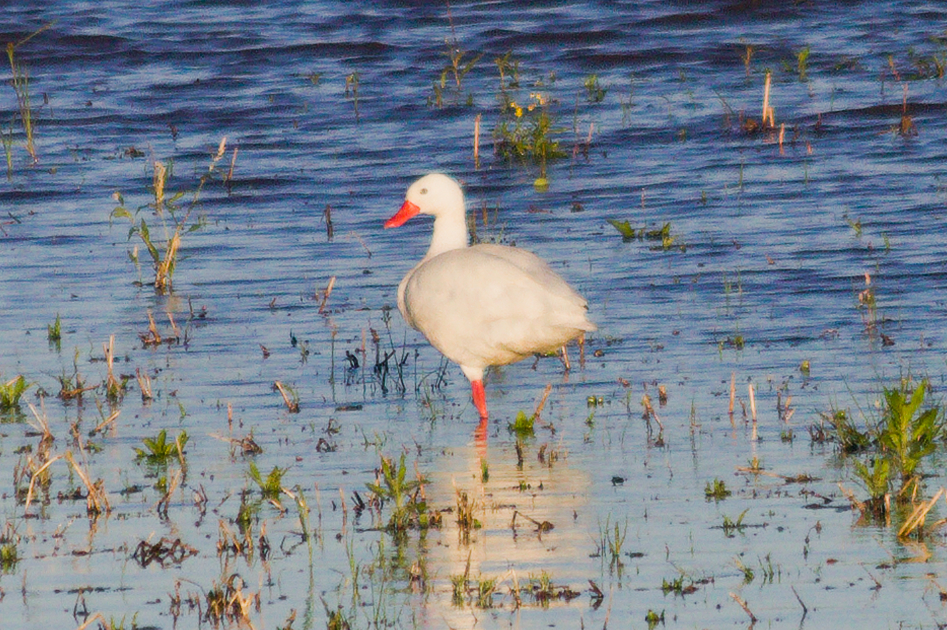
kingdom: Animalia
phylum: Chordata
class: Aves
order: Anseriformes
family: Anatidae
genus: Coscoroba
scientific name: Coscoroba coscoroba
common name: Coscoroba swan
